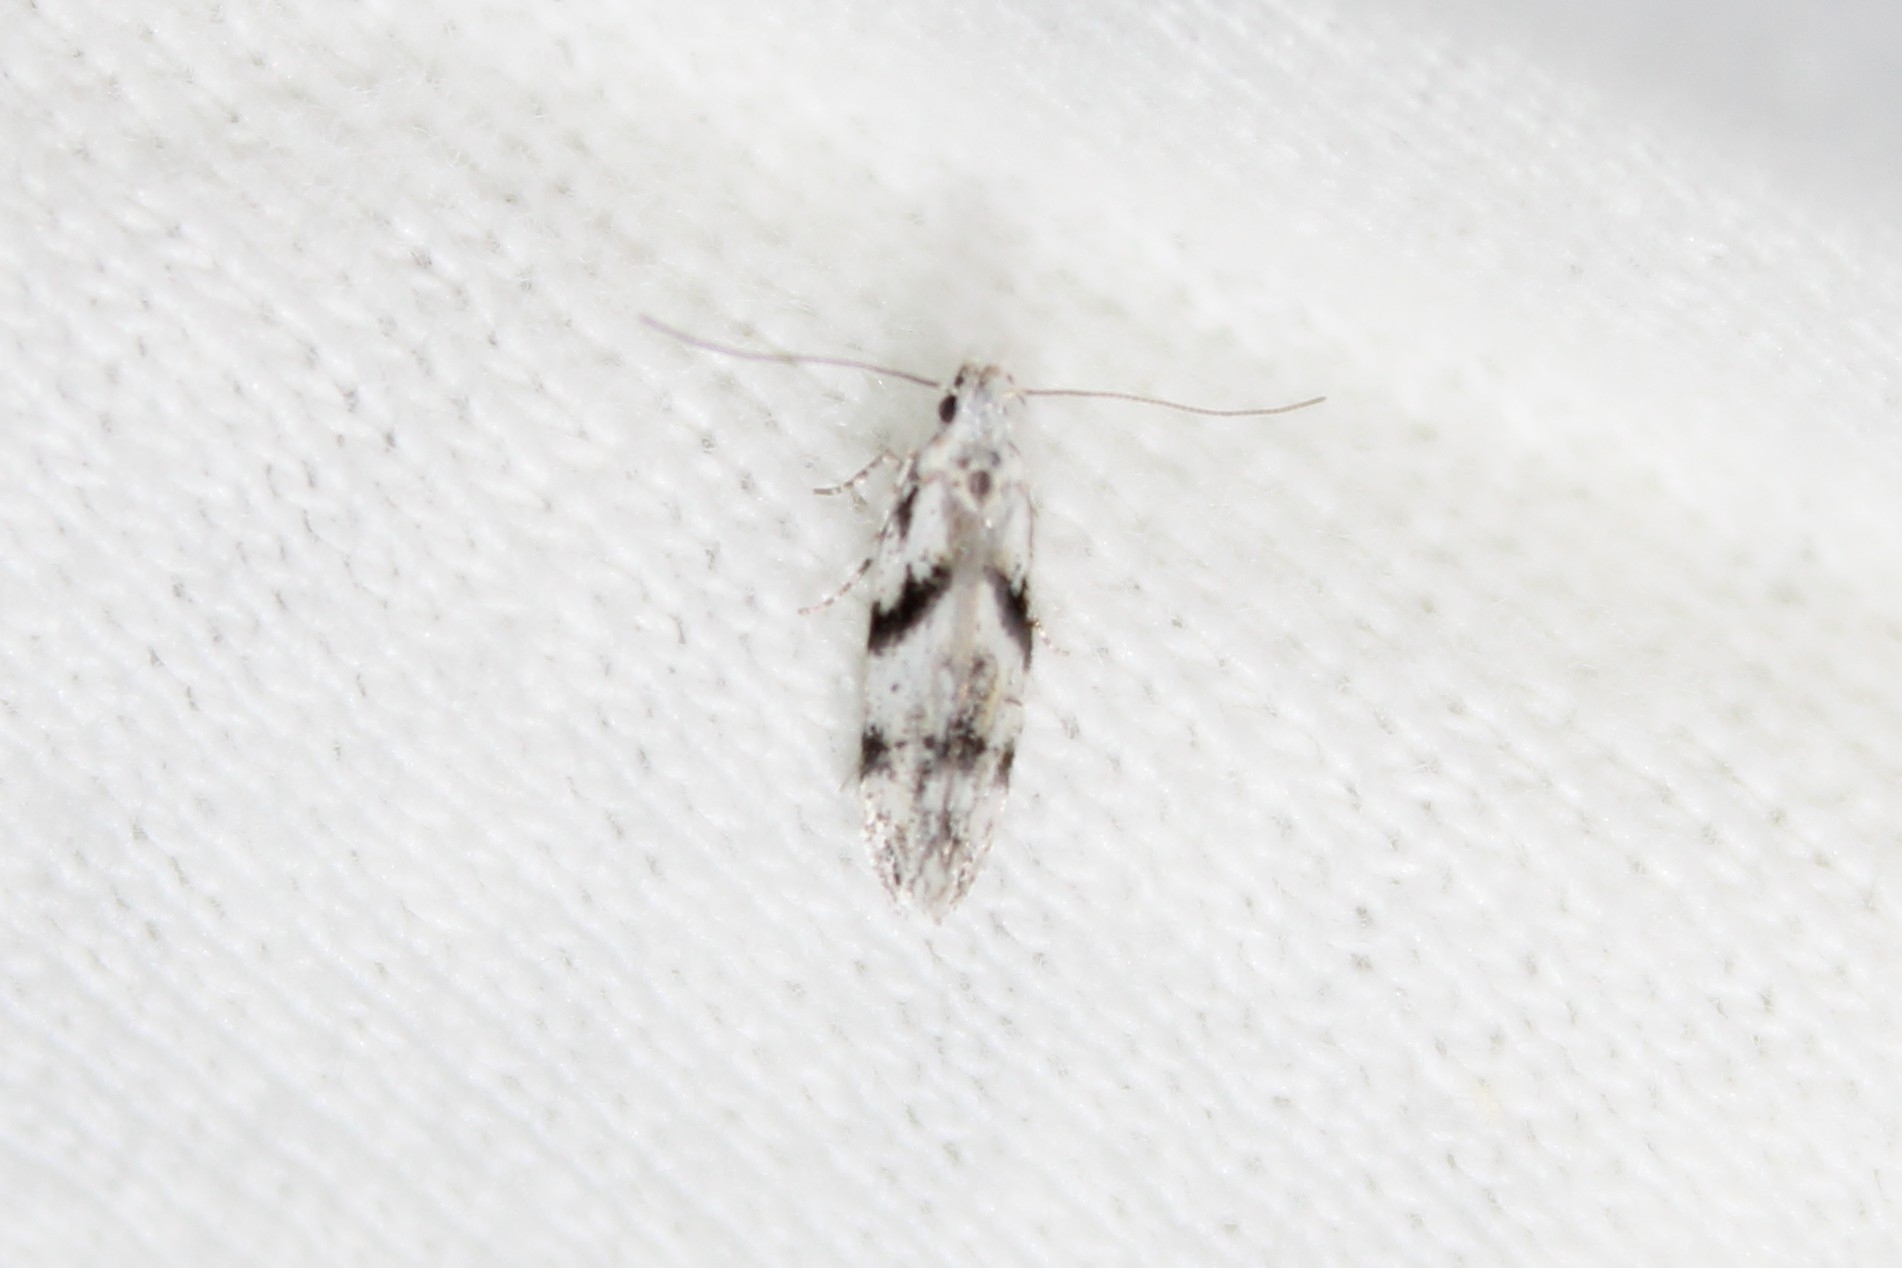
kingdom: Animalia
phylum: Arthropoda
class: Insecta
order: Lepidoptera
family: Gelechiidae
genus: Arogalea
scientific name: Arogalea cristifasciella
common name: White stripe-backed moth
